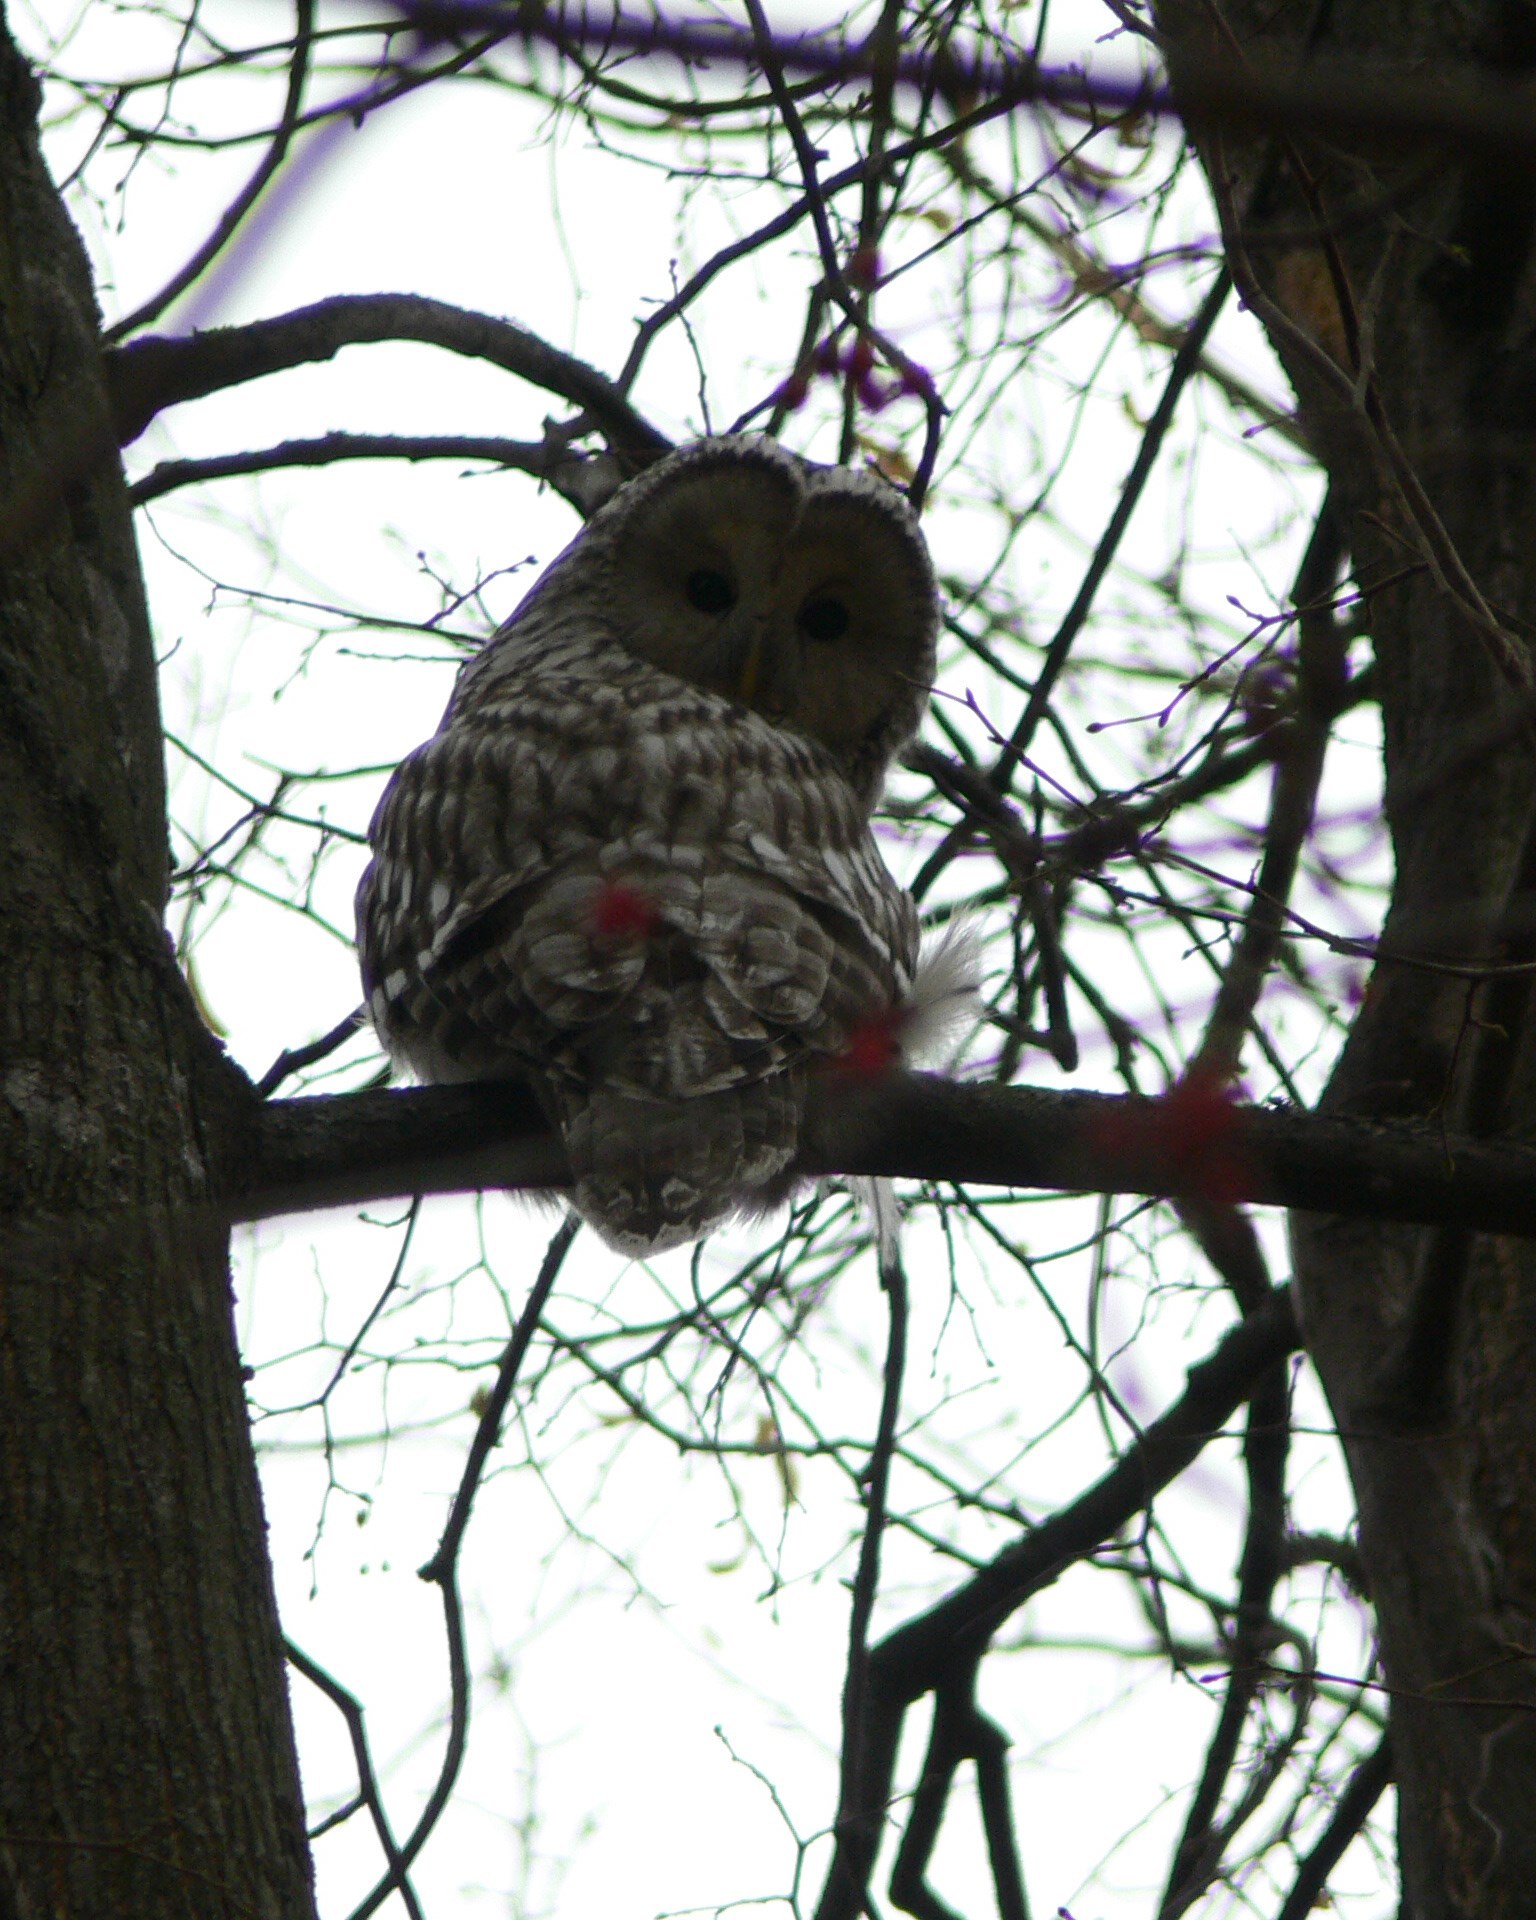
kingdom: Animalia
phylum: Chordata
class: Aves
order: Strigiformes
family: Strigidae
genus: Strix
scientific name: Strix uralensis
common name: Ural owl
